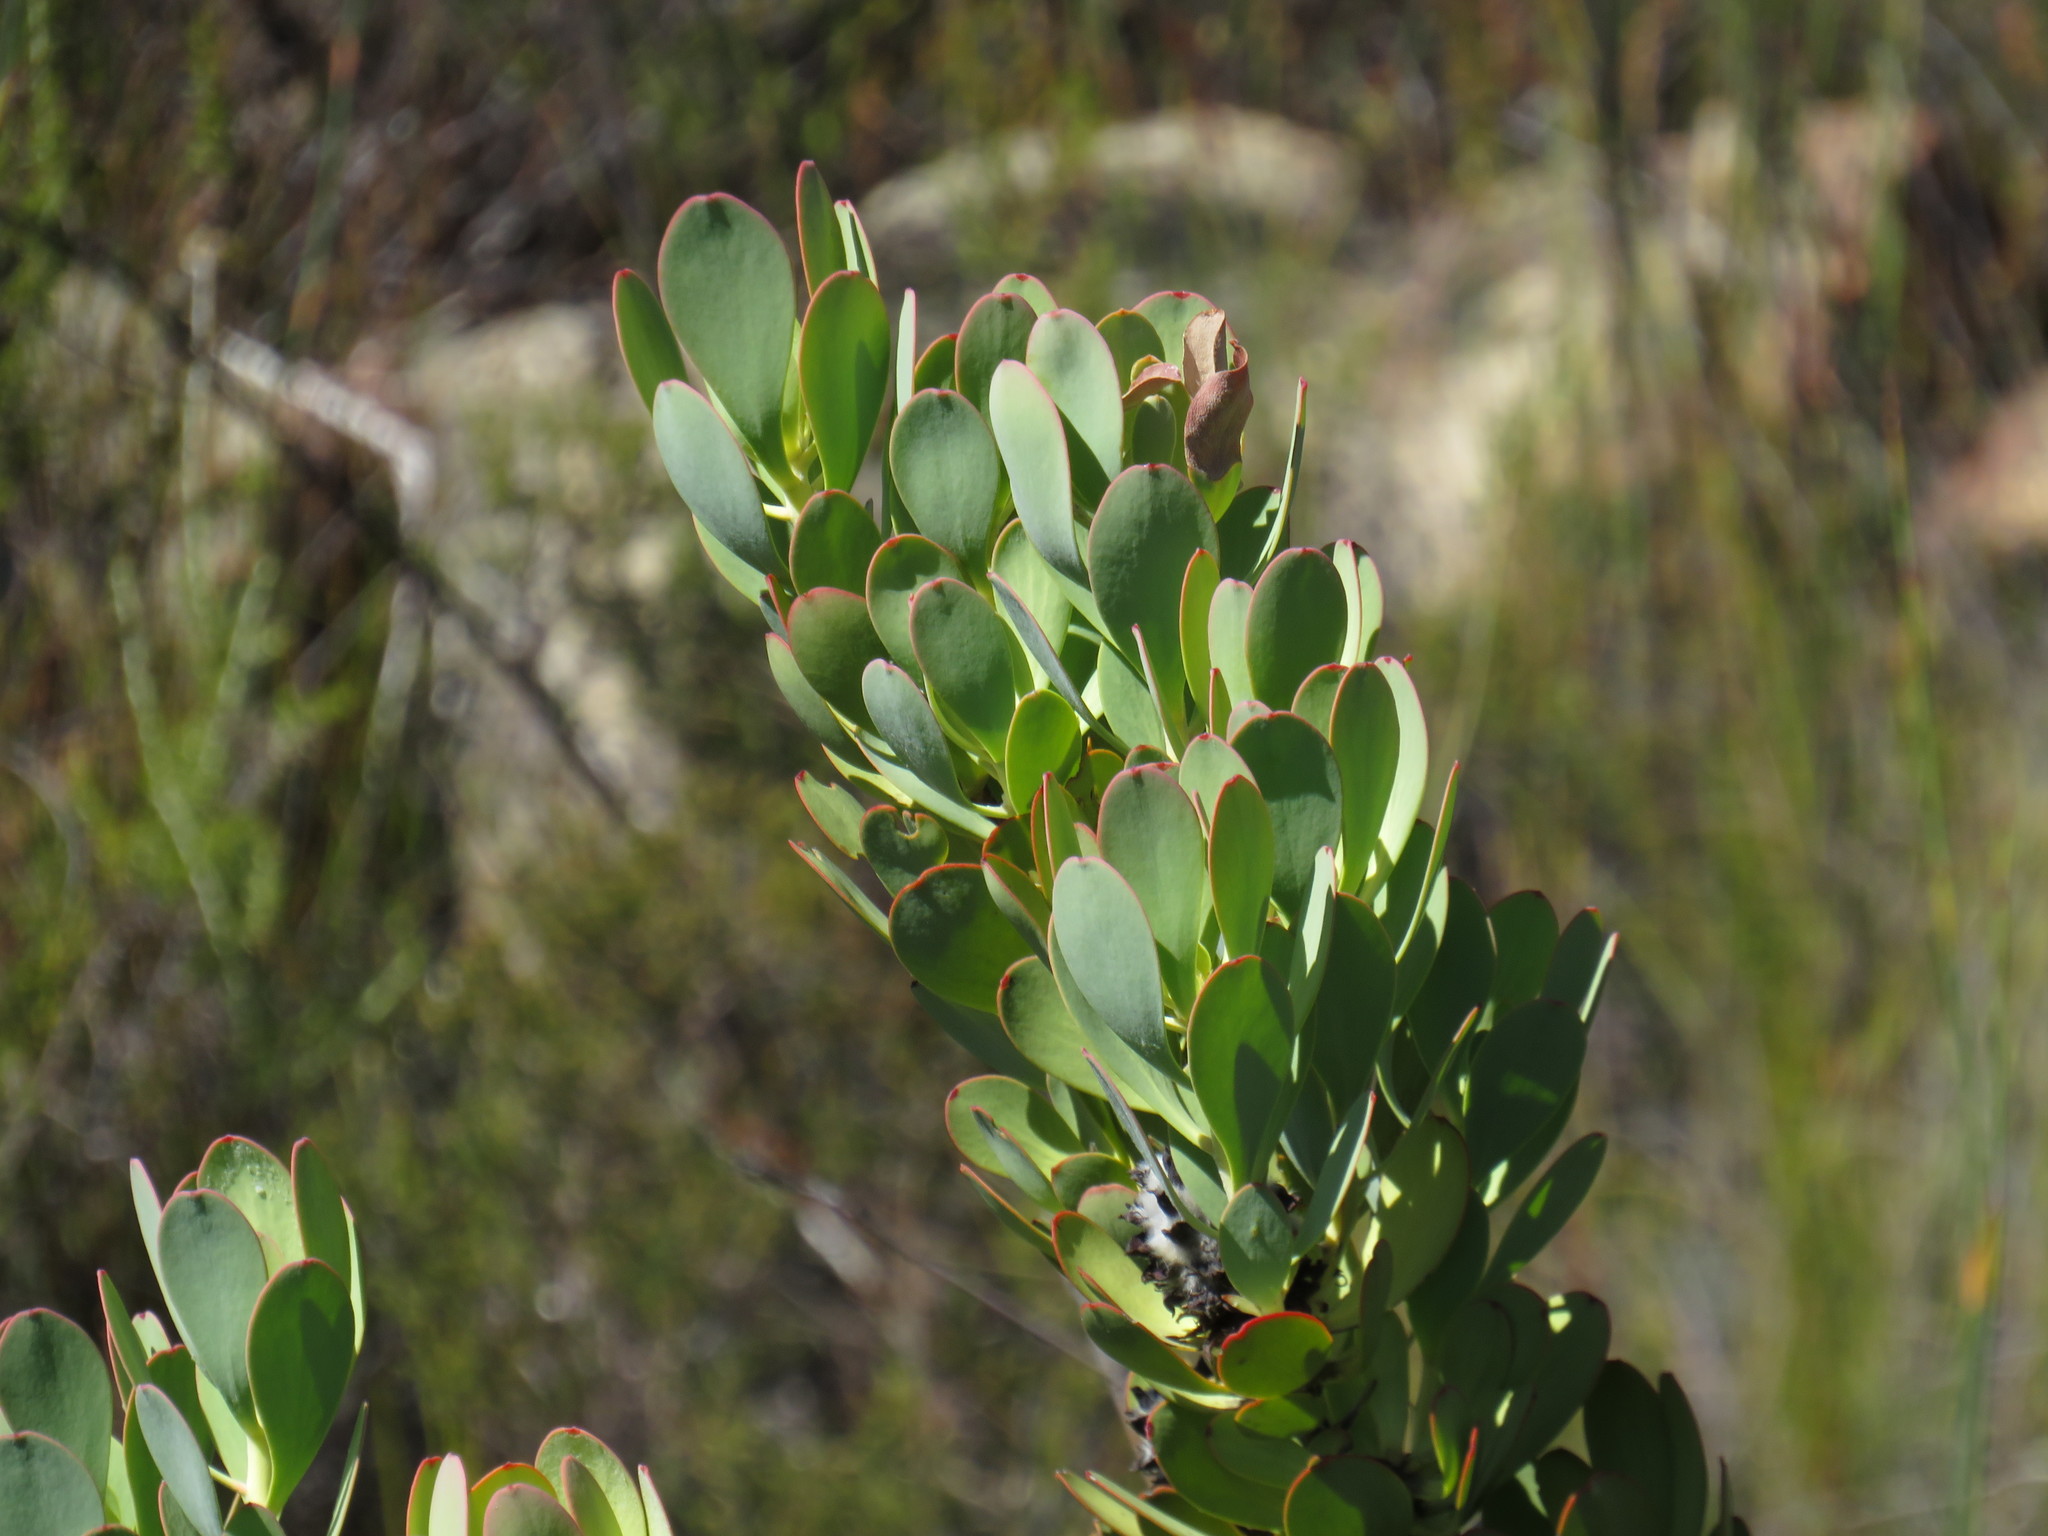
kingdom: Plantae
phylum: Tracheophyta
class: Magnoliopsida
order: Proteales
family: Proteaceae
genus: Leucadendron
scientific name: Leucadendron arcuatum
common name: Red-edge conebush
